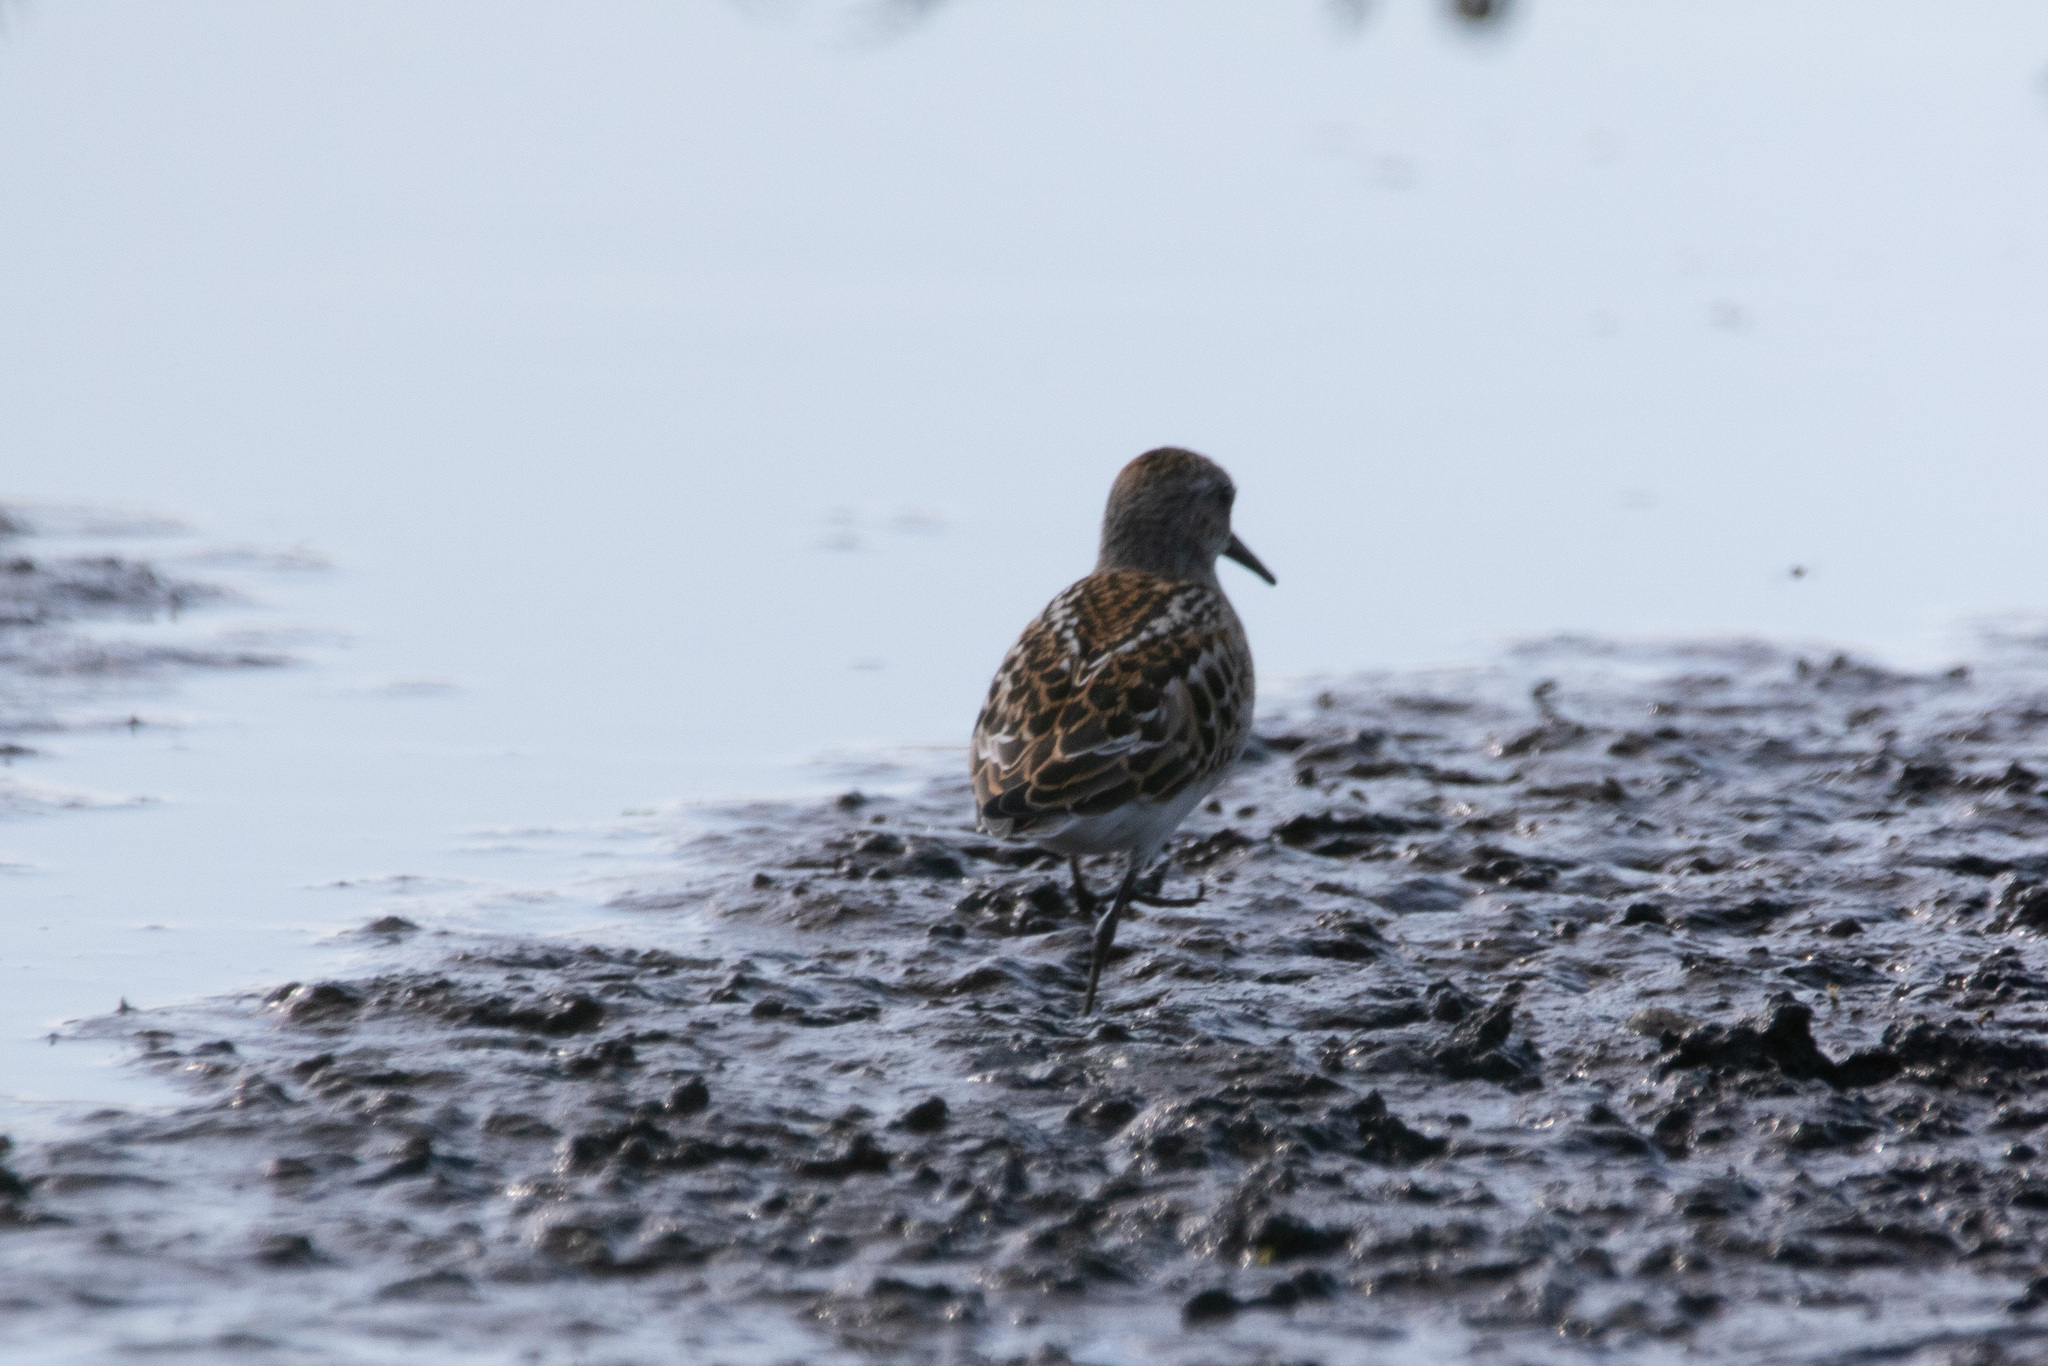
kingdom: Animalia
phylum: Chordata
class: Aves
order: Charadriiformes
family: Scolopacidae
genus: Calidris
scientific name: Calidris minuta
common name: Little stint
